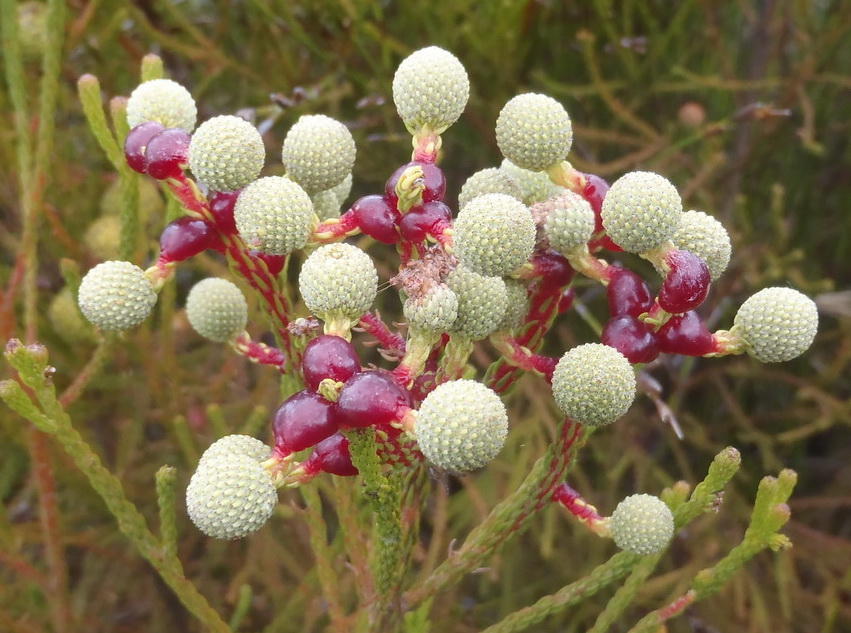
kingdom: Plantae
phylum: Tracheophyta
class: Magnoliopsida
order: Bruniales
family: Bruniaceae
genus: Berzelia
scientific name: Berzelia intermedia
